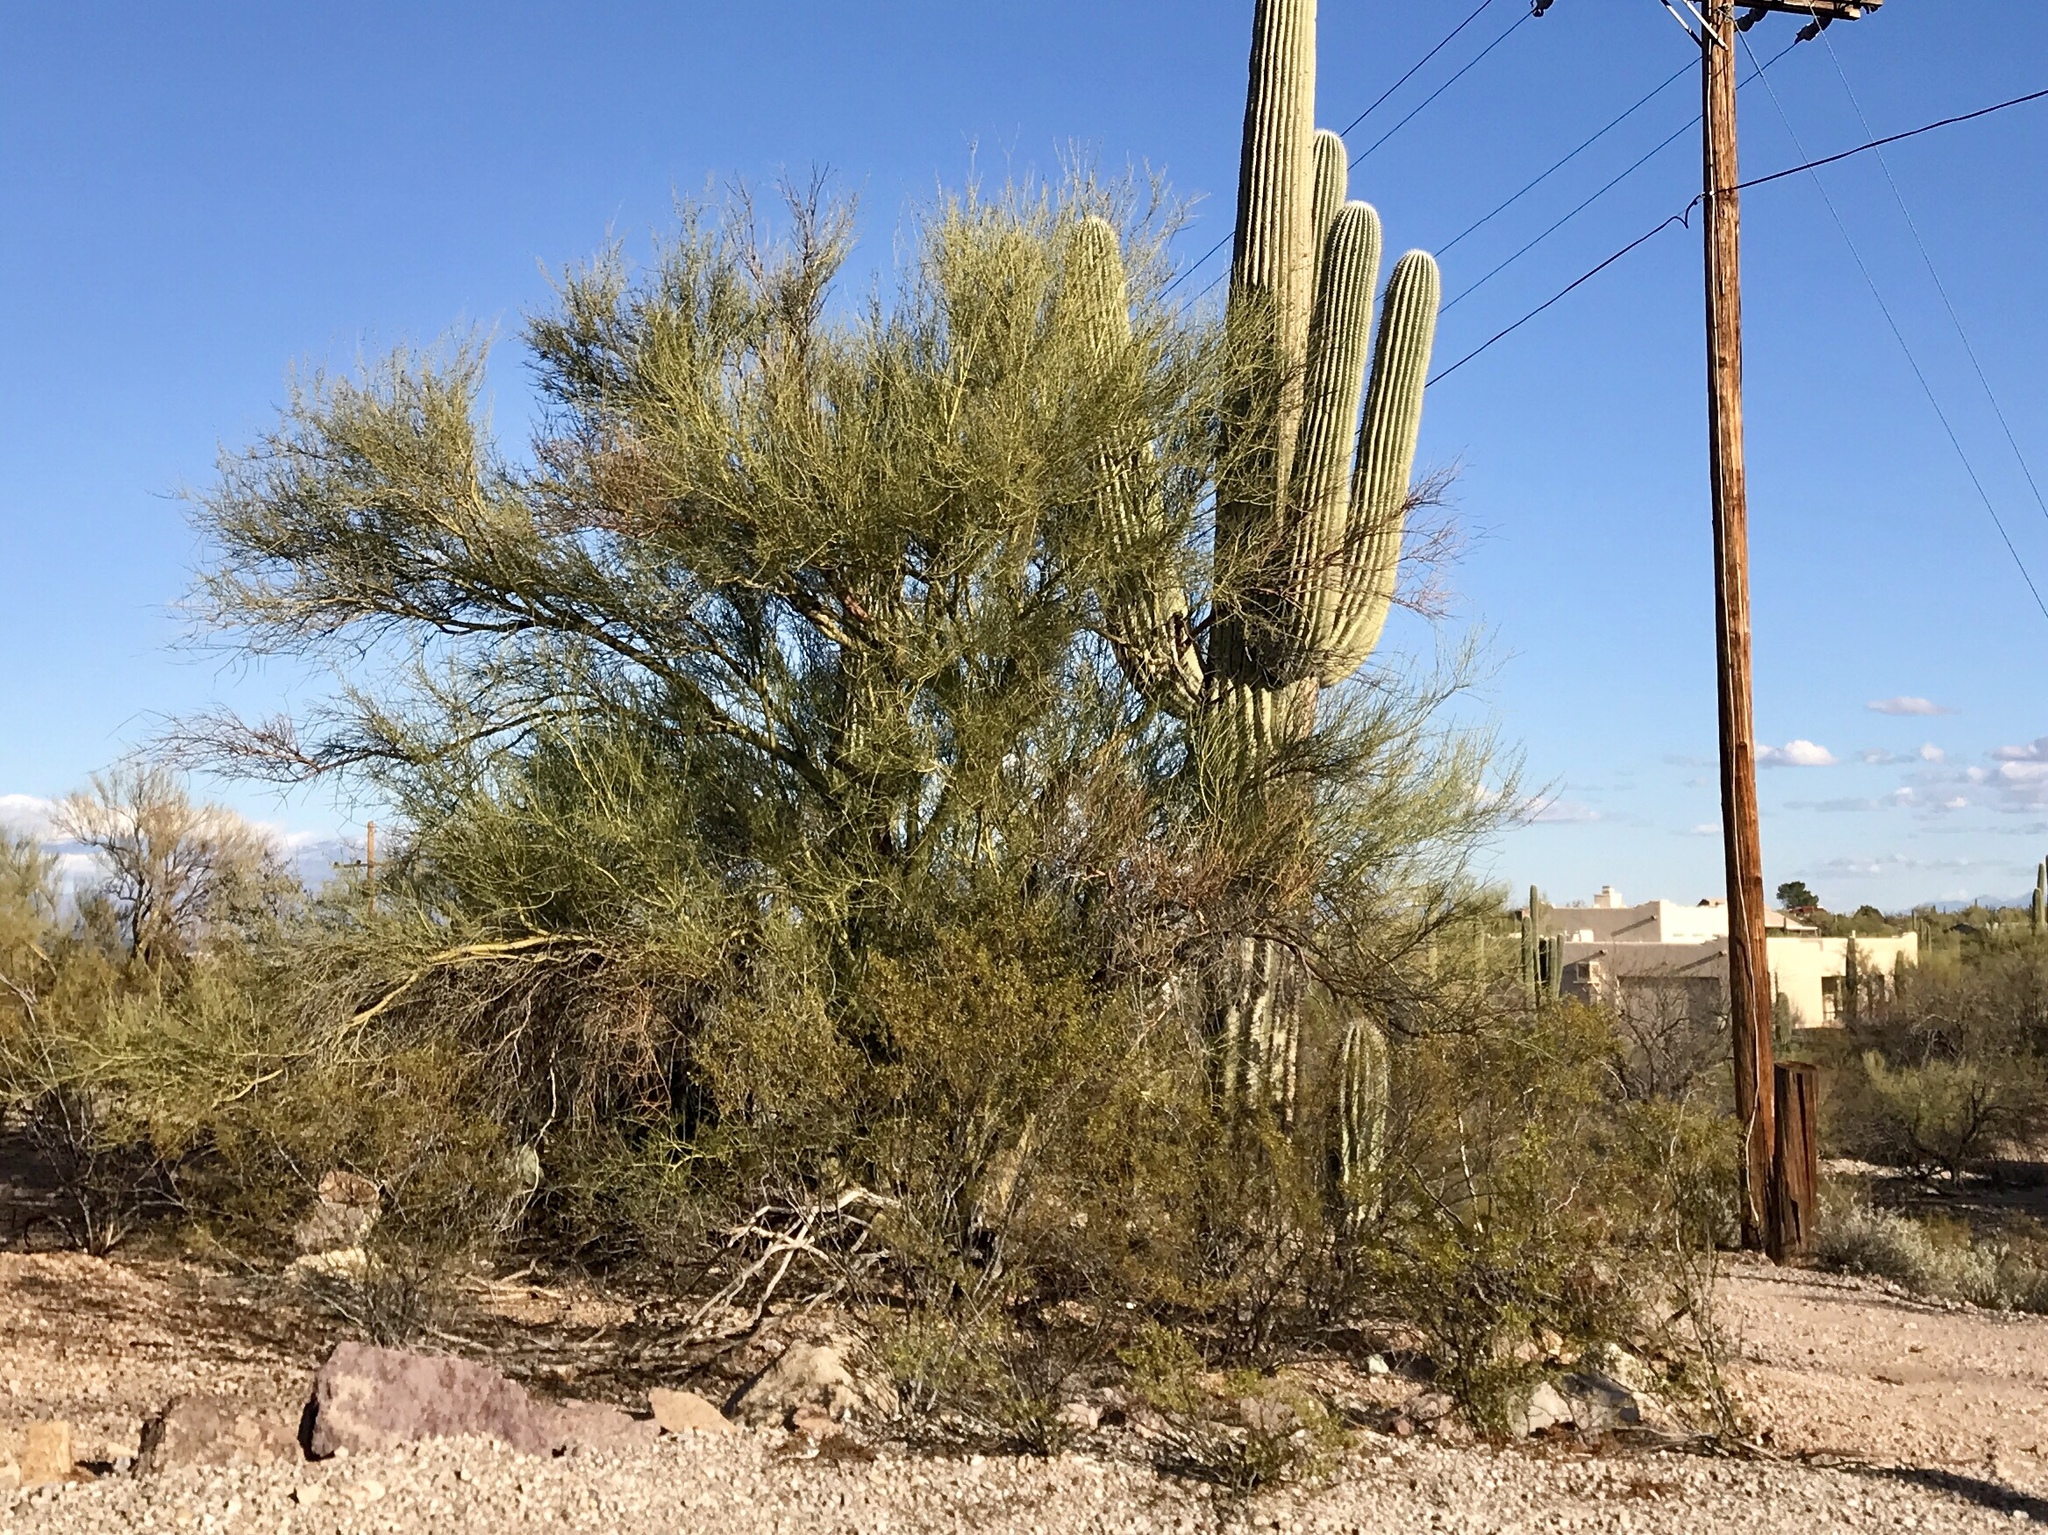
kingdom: Plantae
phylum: Tracheophyta
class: Magnoliopsida
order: Fabales
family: Fabaceae
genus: Parkinsonia
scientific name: Parkinsonia microphylla
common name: Yellow paloverde
